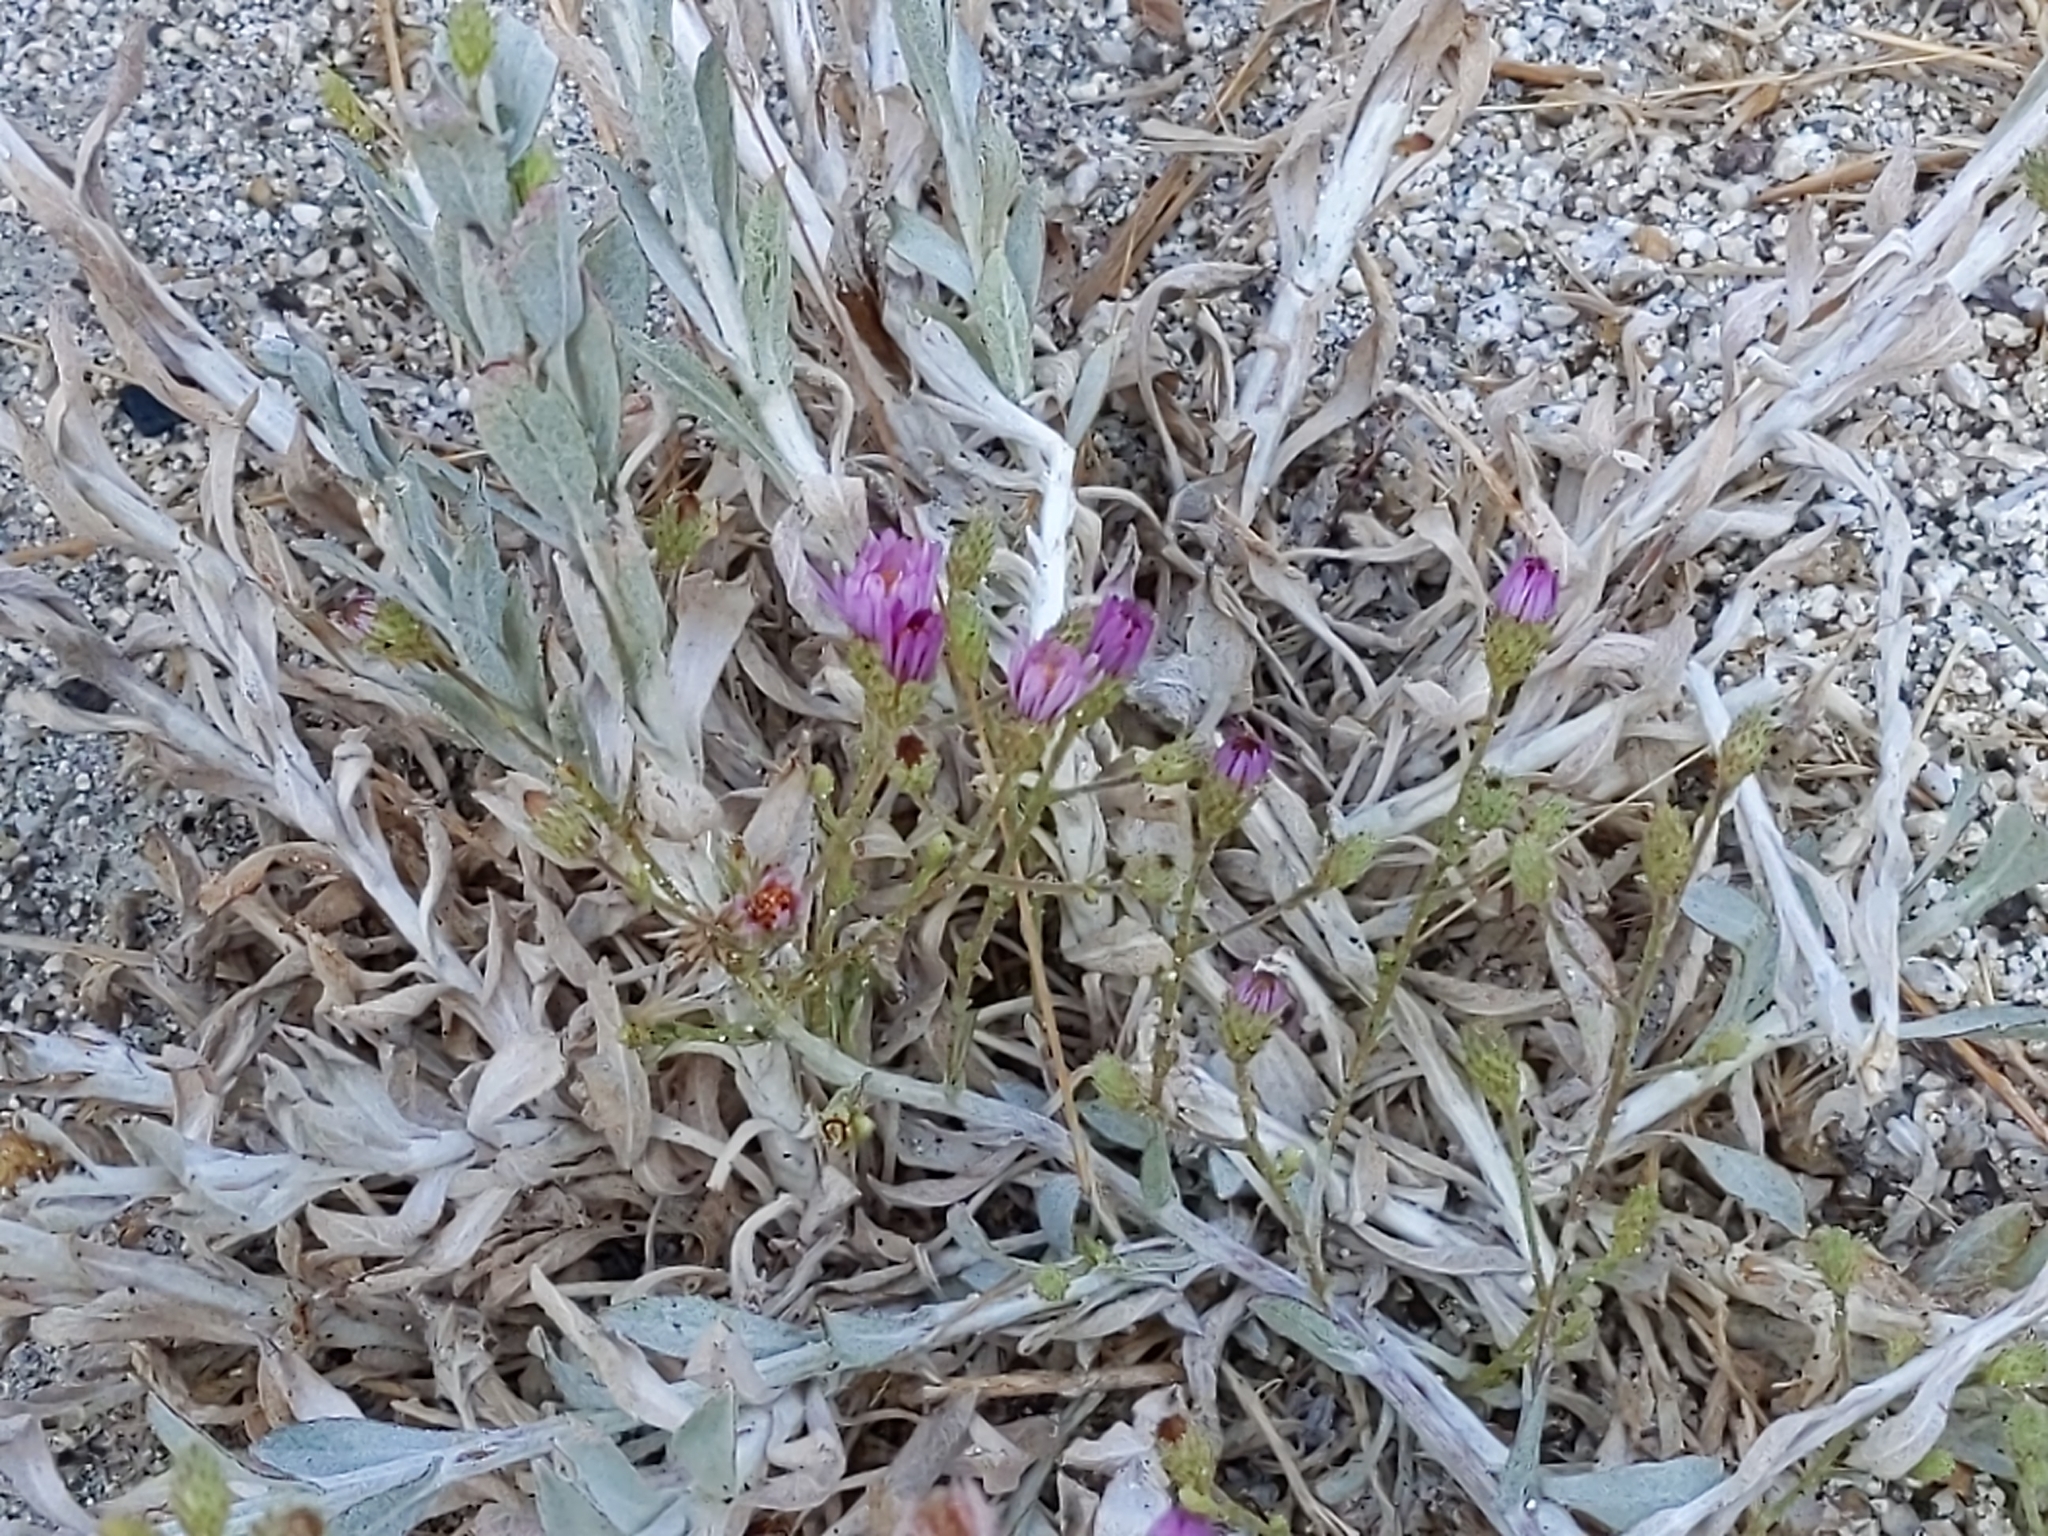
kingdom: Plantae
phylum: Tracheophyta
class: Magnoliopsida
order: Asterales
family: Asteraceae
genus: Corethrogyne
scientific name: Corethrogyne filaginifolia
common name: Sand-aster
